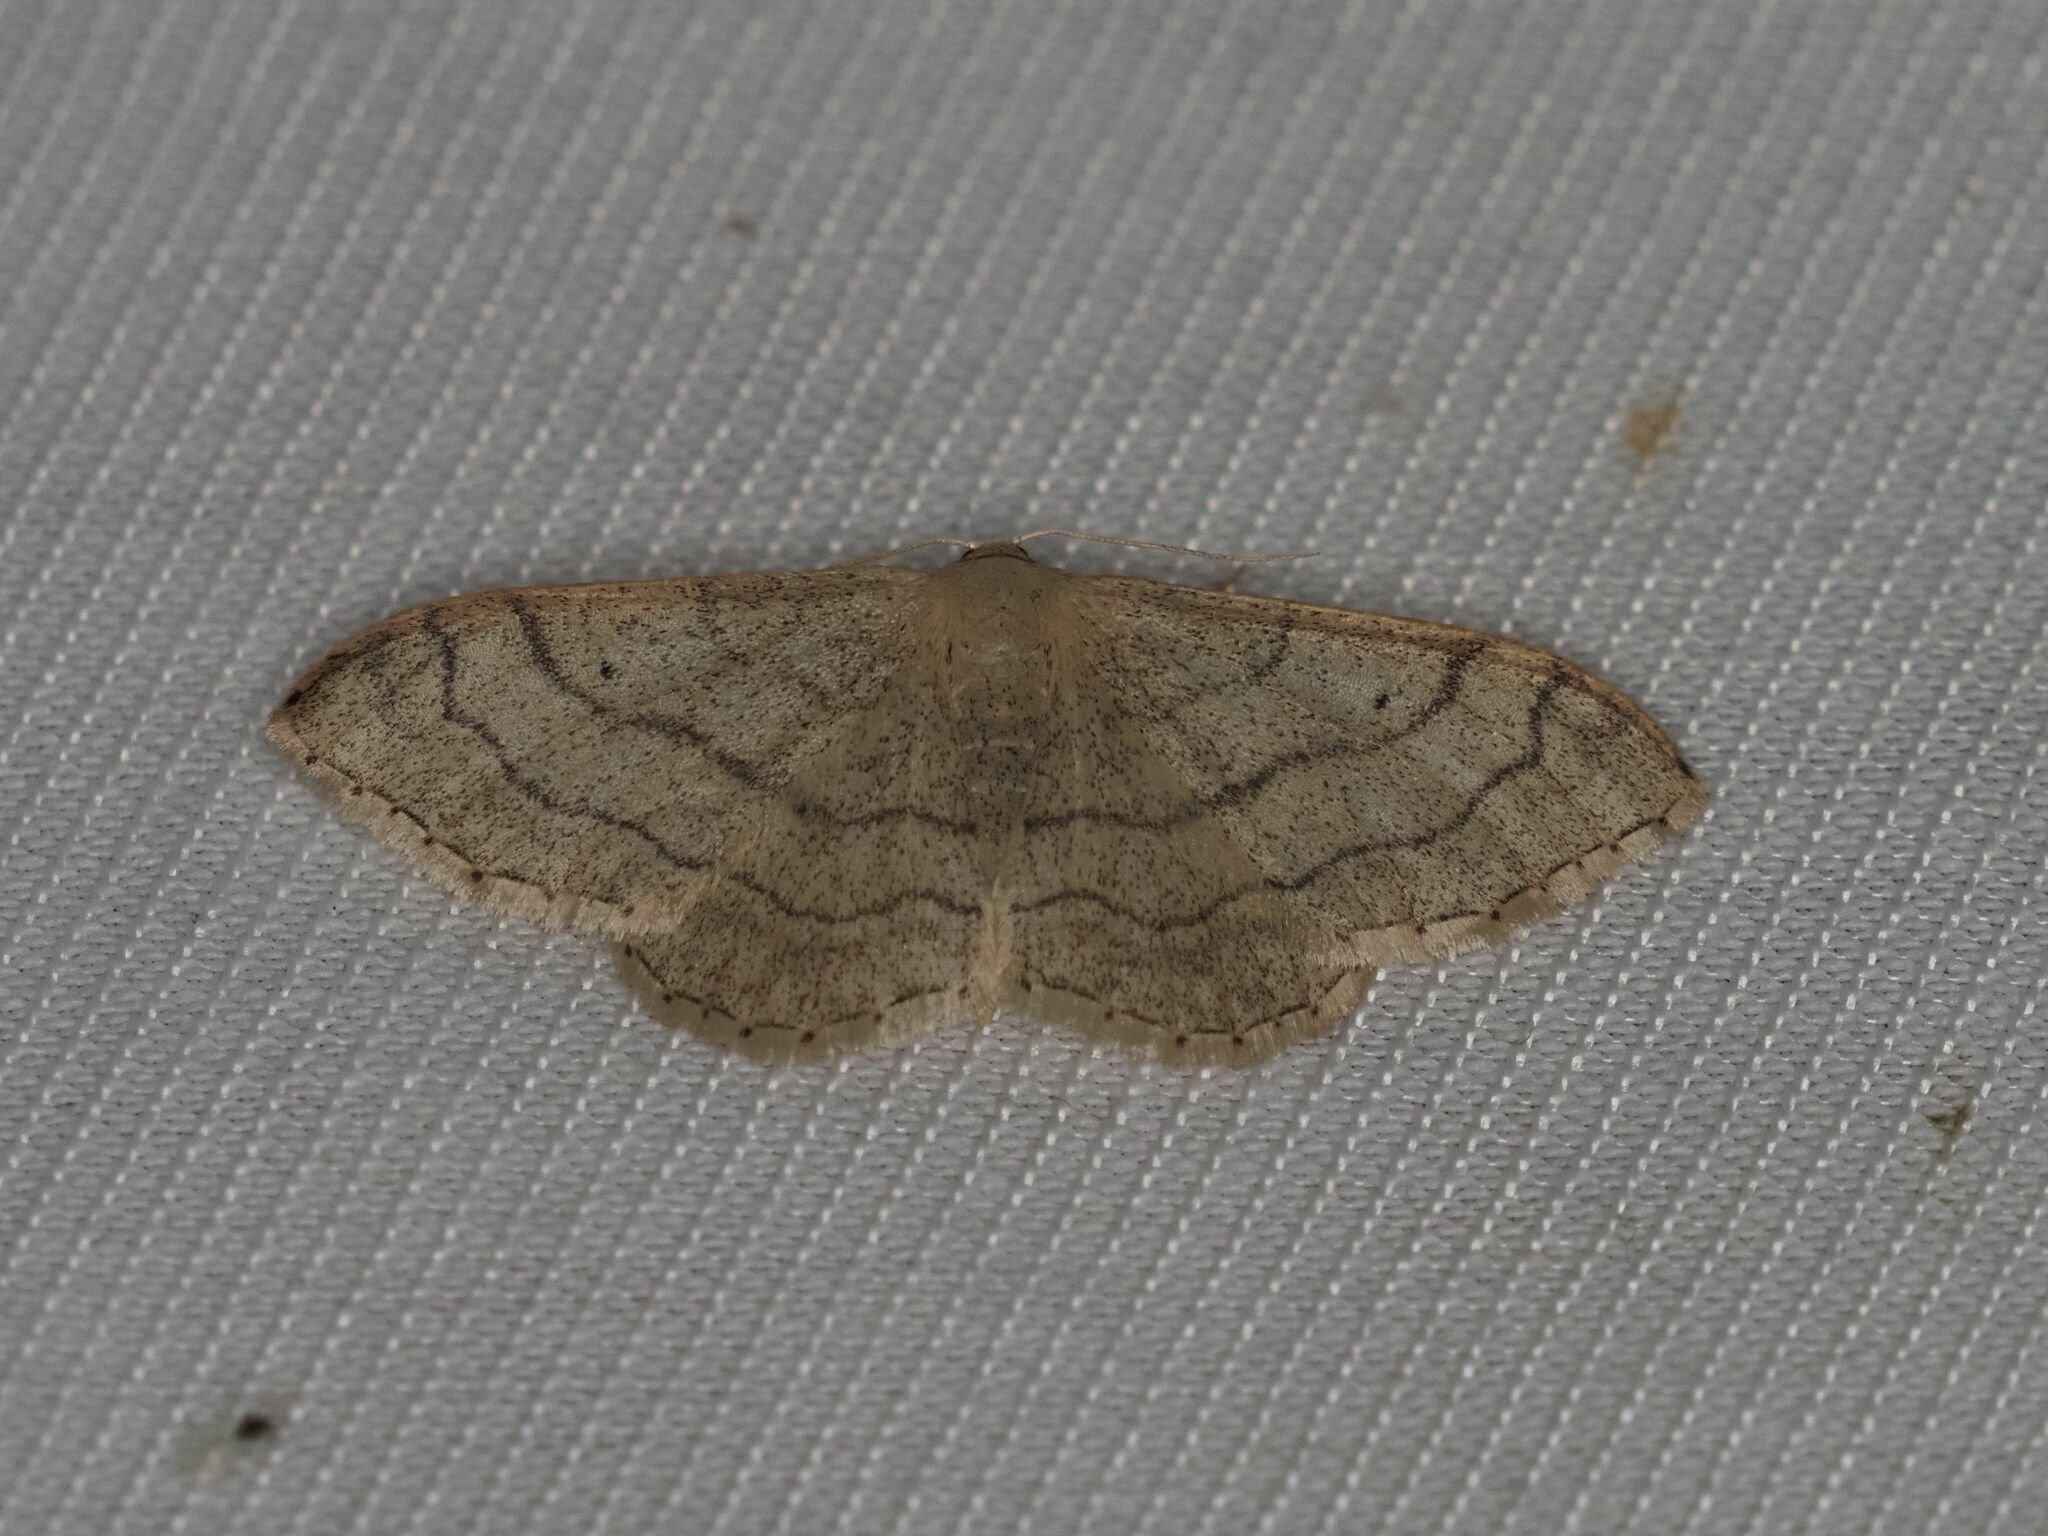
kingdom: Animalia
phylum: Arthropoda
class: Insecta
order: Lepidoptera
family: Geometridae
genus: Idaea
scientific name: Idaea aversata
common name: Riband wave
